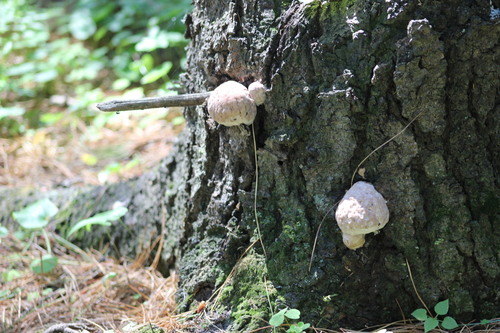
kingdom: Fungi
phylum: Basidiomycota
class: Agaricomycetes
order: Polyporales
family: Fomitopsidaceae
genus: Fomitopsis
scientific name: Fomitopsis pinicola
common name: Red-belted bracket
